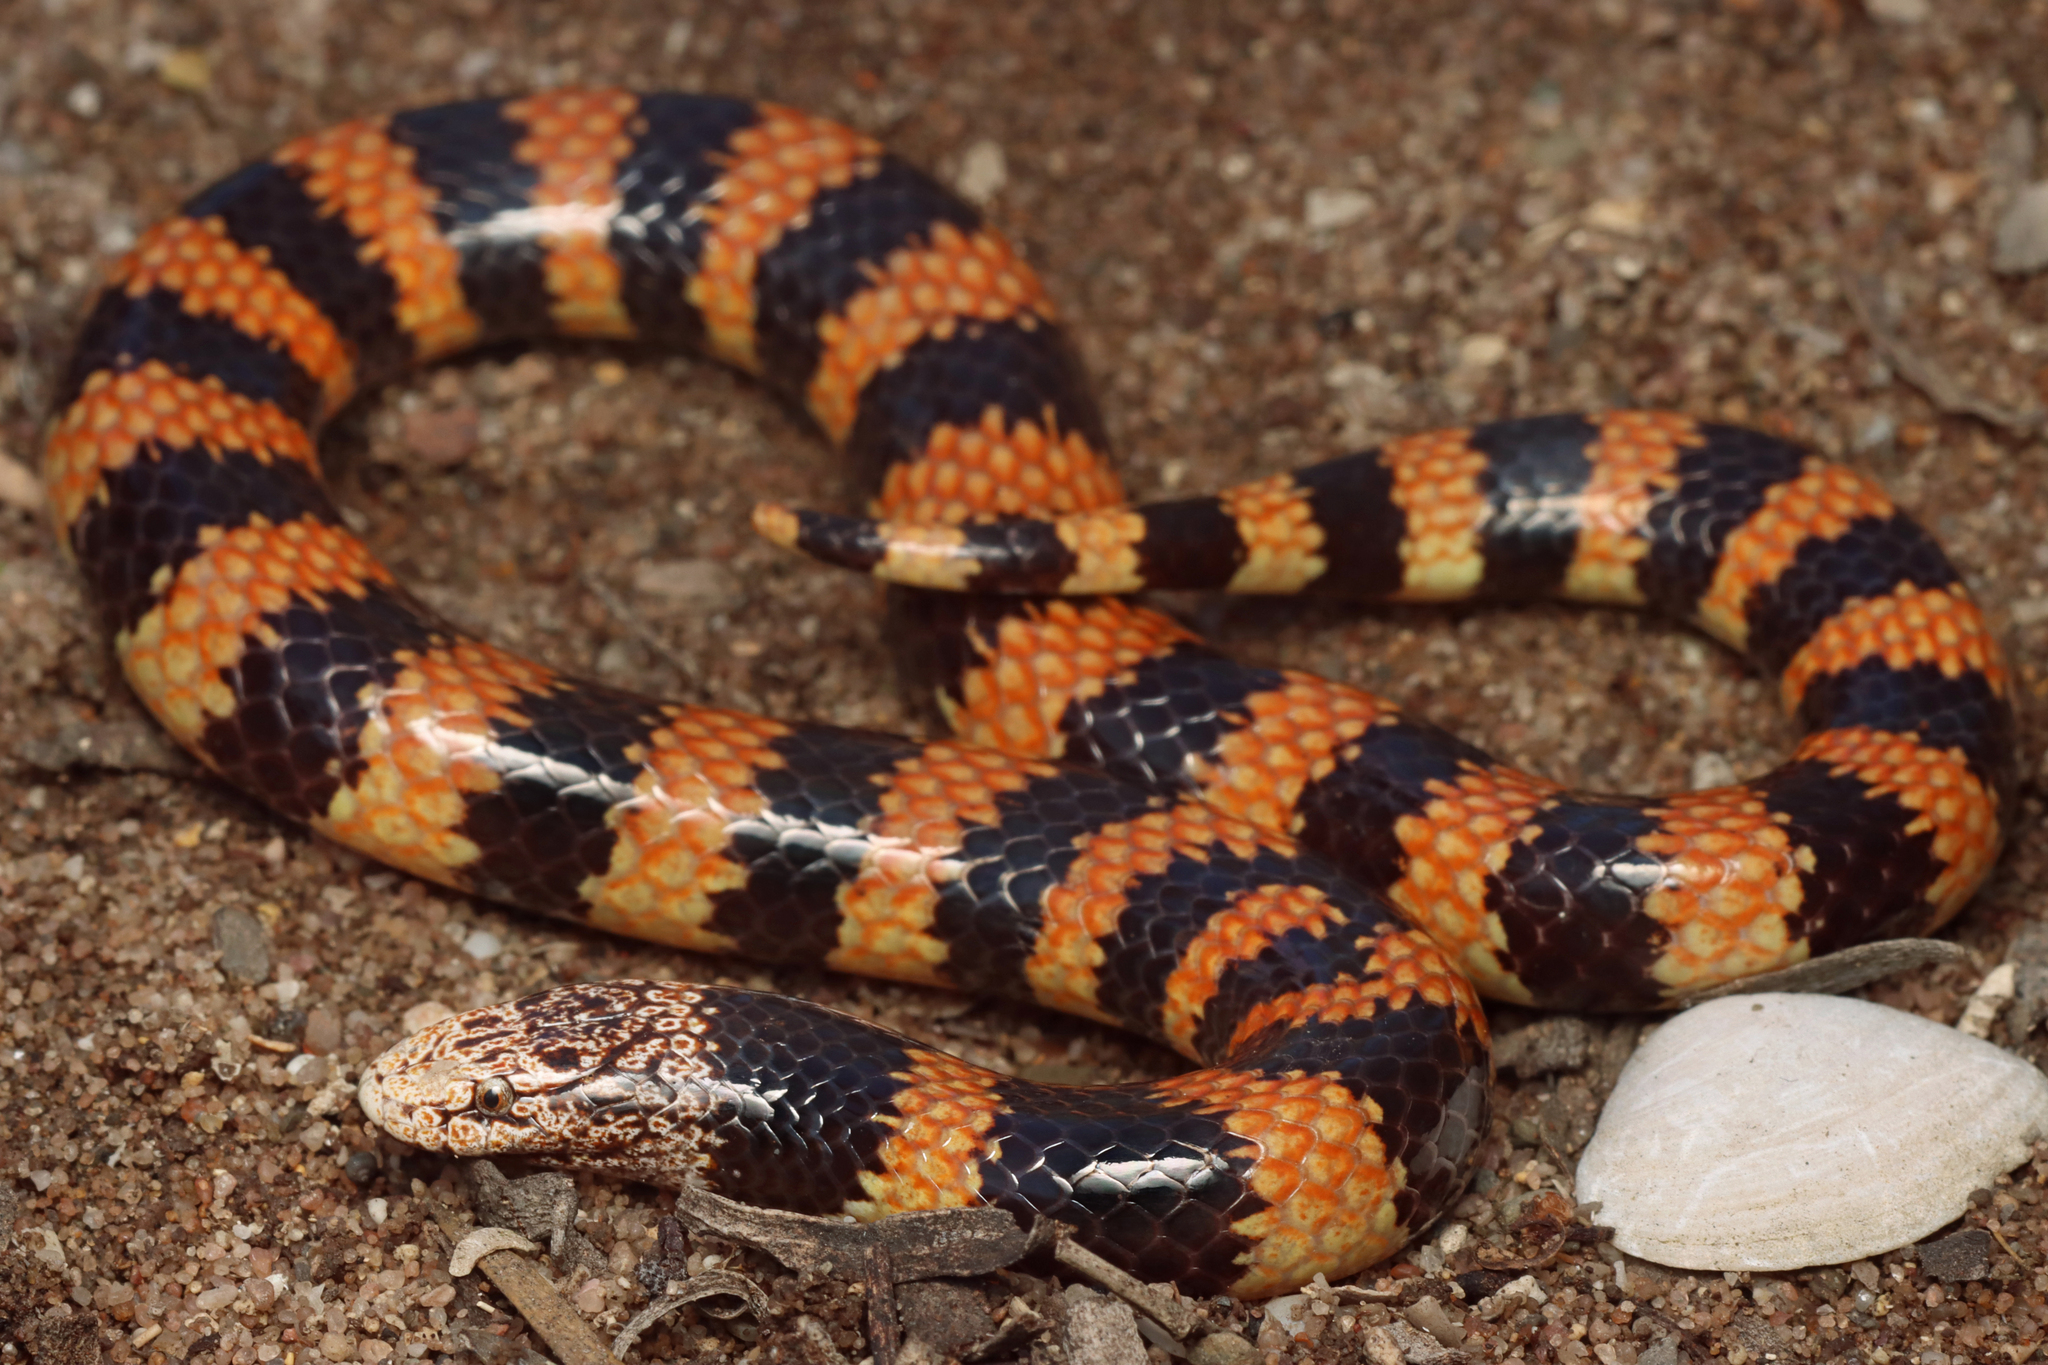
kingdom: Animalia
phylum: Chordata
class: Squamata
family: Elapidae
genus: Simoselaps
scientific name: Simoselaps bertholdi
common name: Desert banded snake
